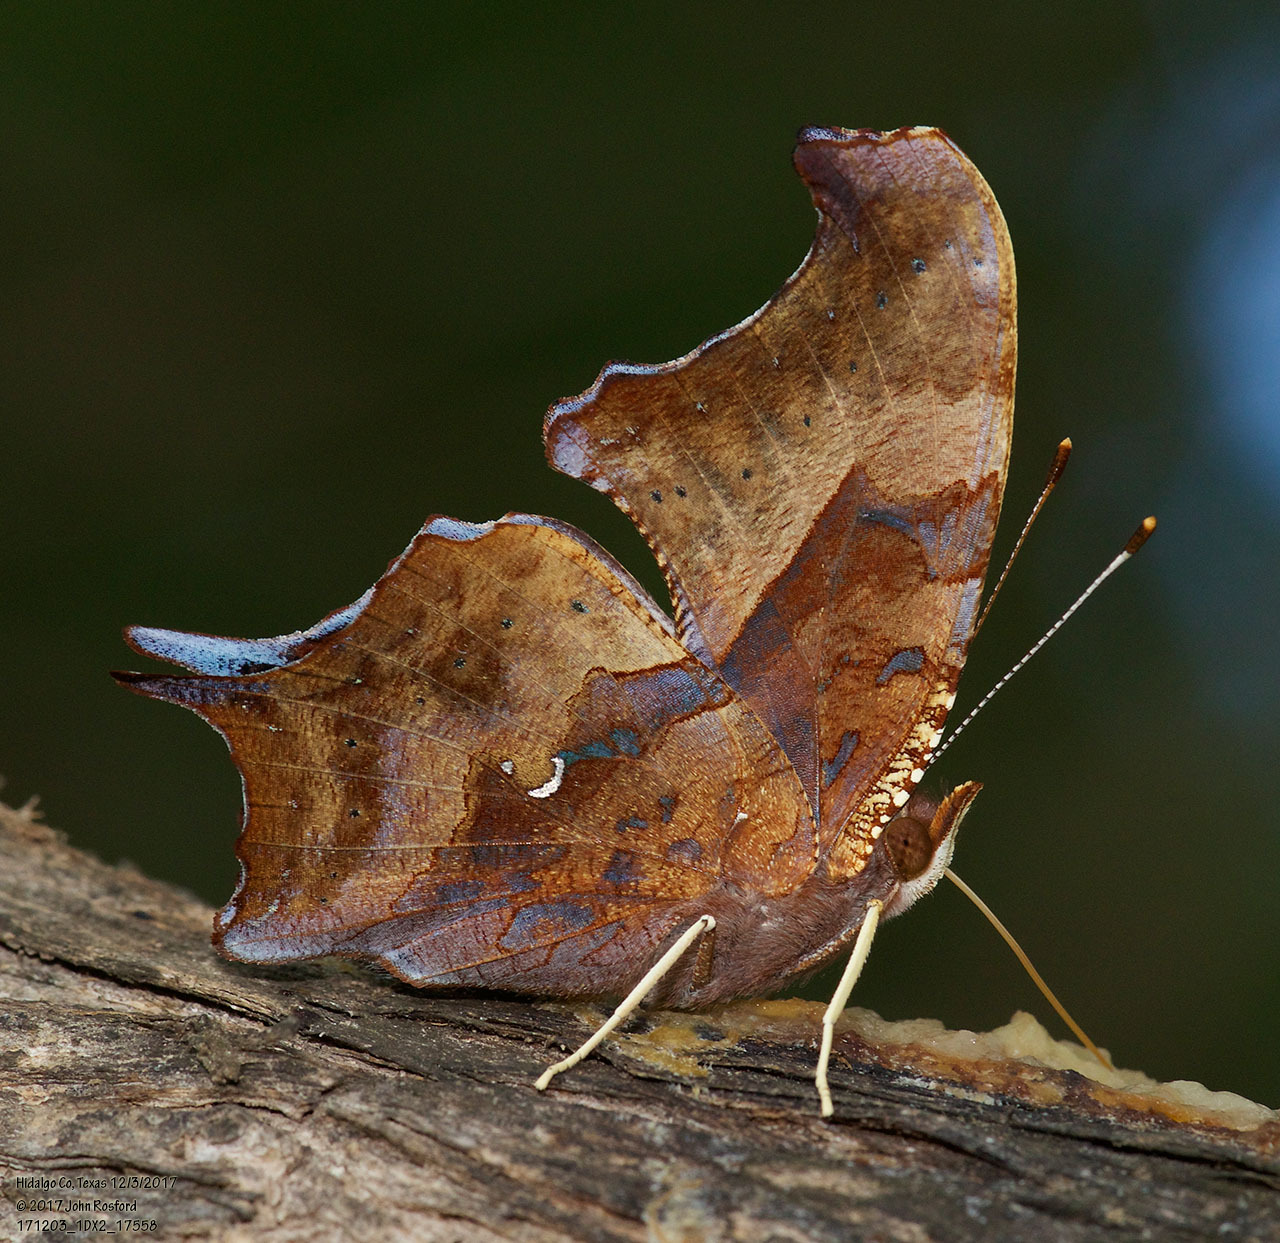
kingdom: Animalia
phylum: Arthropoda
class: Insecta
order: Lepidoptera
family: Nymphalidae
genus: Polygonia
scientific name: Polygonia interrogationis
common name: Question mark
